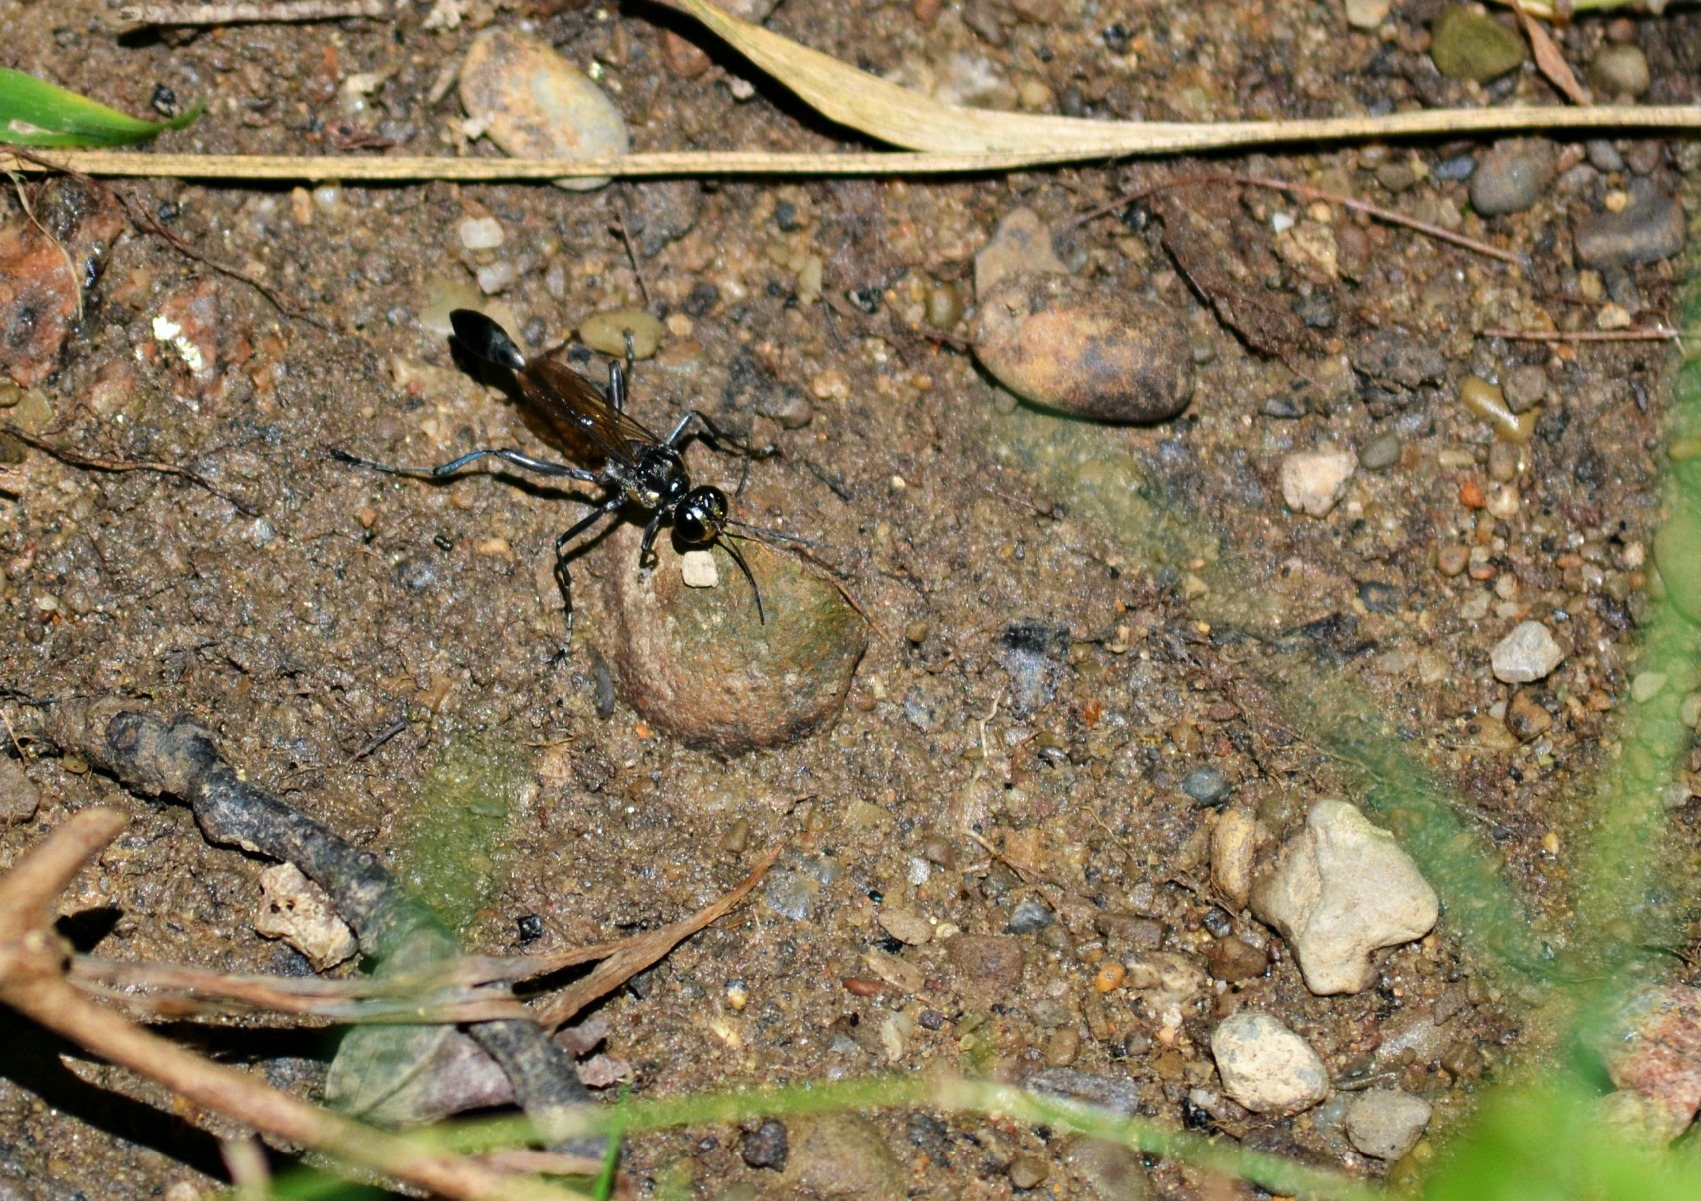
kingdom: Animalia
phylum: Arthropoda
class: Insecta
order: Hymenoptera
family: Sphecidae
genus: Eremnophila
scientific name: Eremnophila aureonotata
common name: Gold-marked thread-waisted wasp
